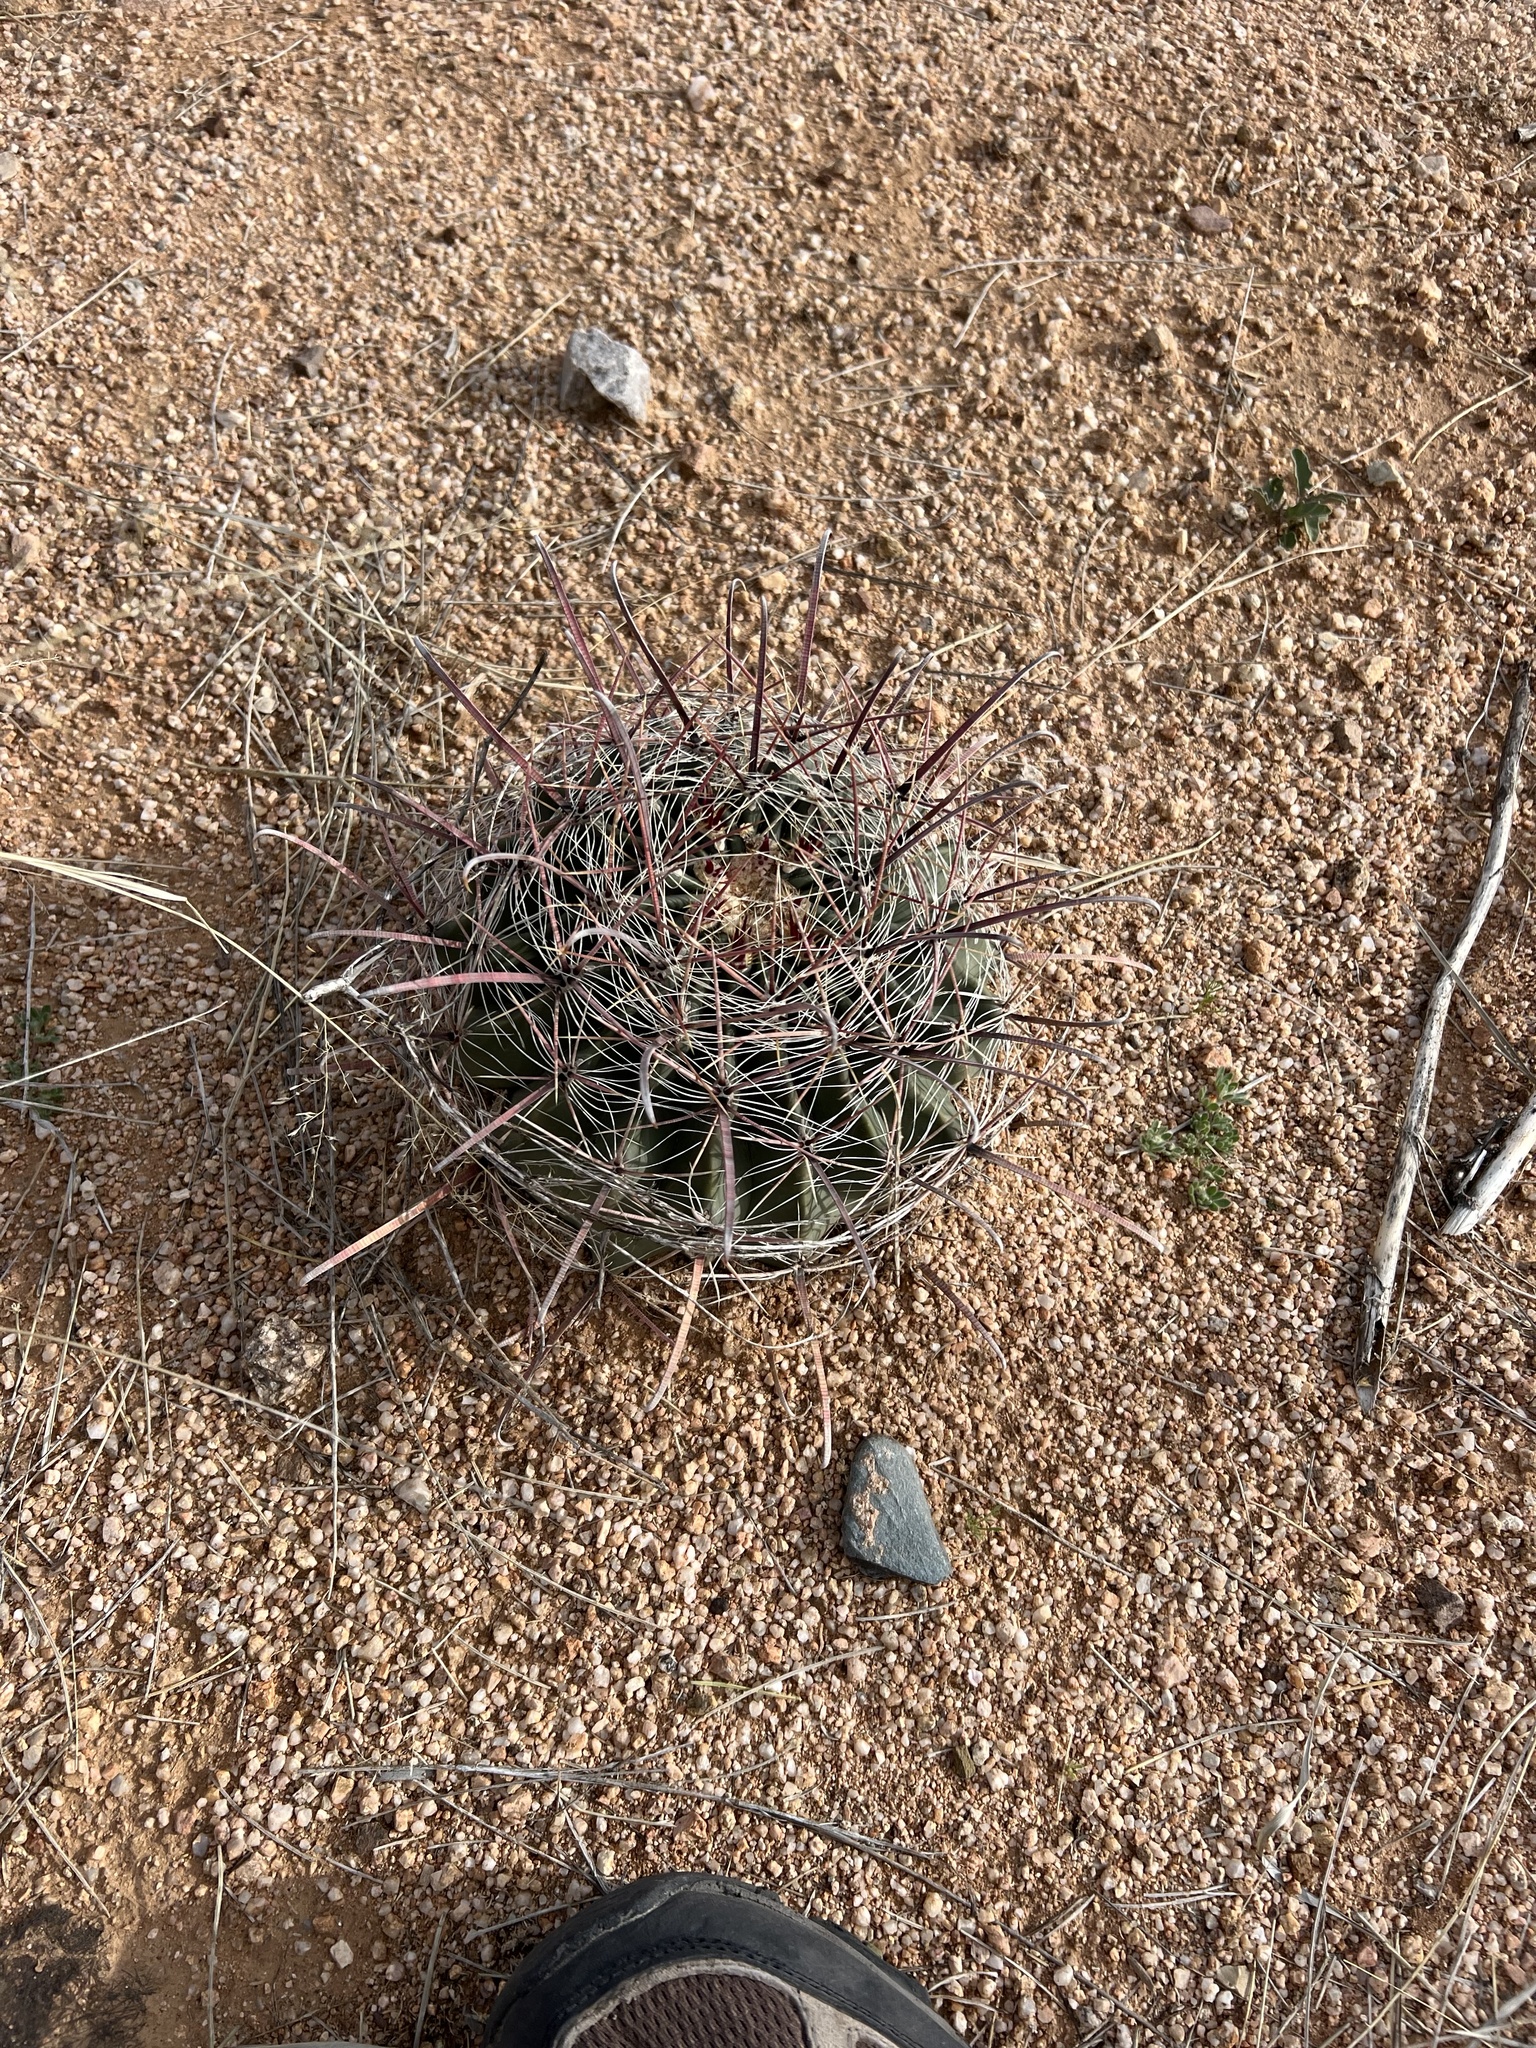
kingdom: Plantae
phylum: Tracheophyta
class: Magnoliopsida
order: Caryophyllales
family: Cactaceae
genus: Ferocactus
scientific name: Ferocactus wislizeni
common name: Candy barrel cactus
